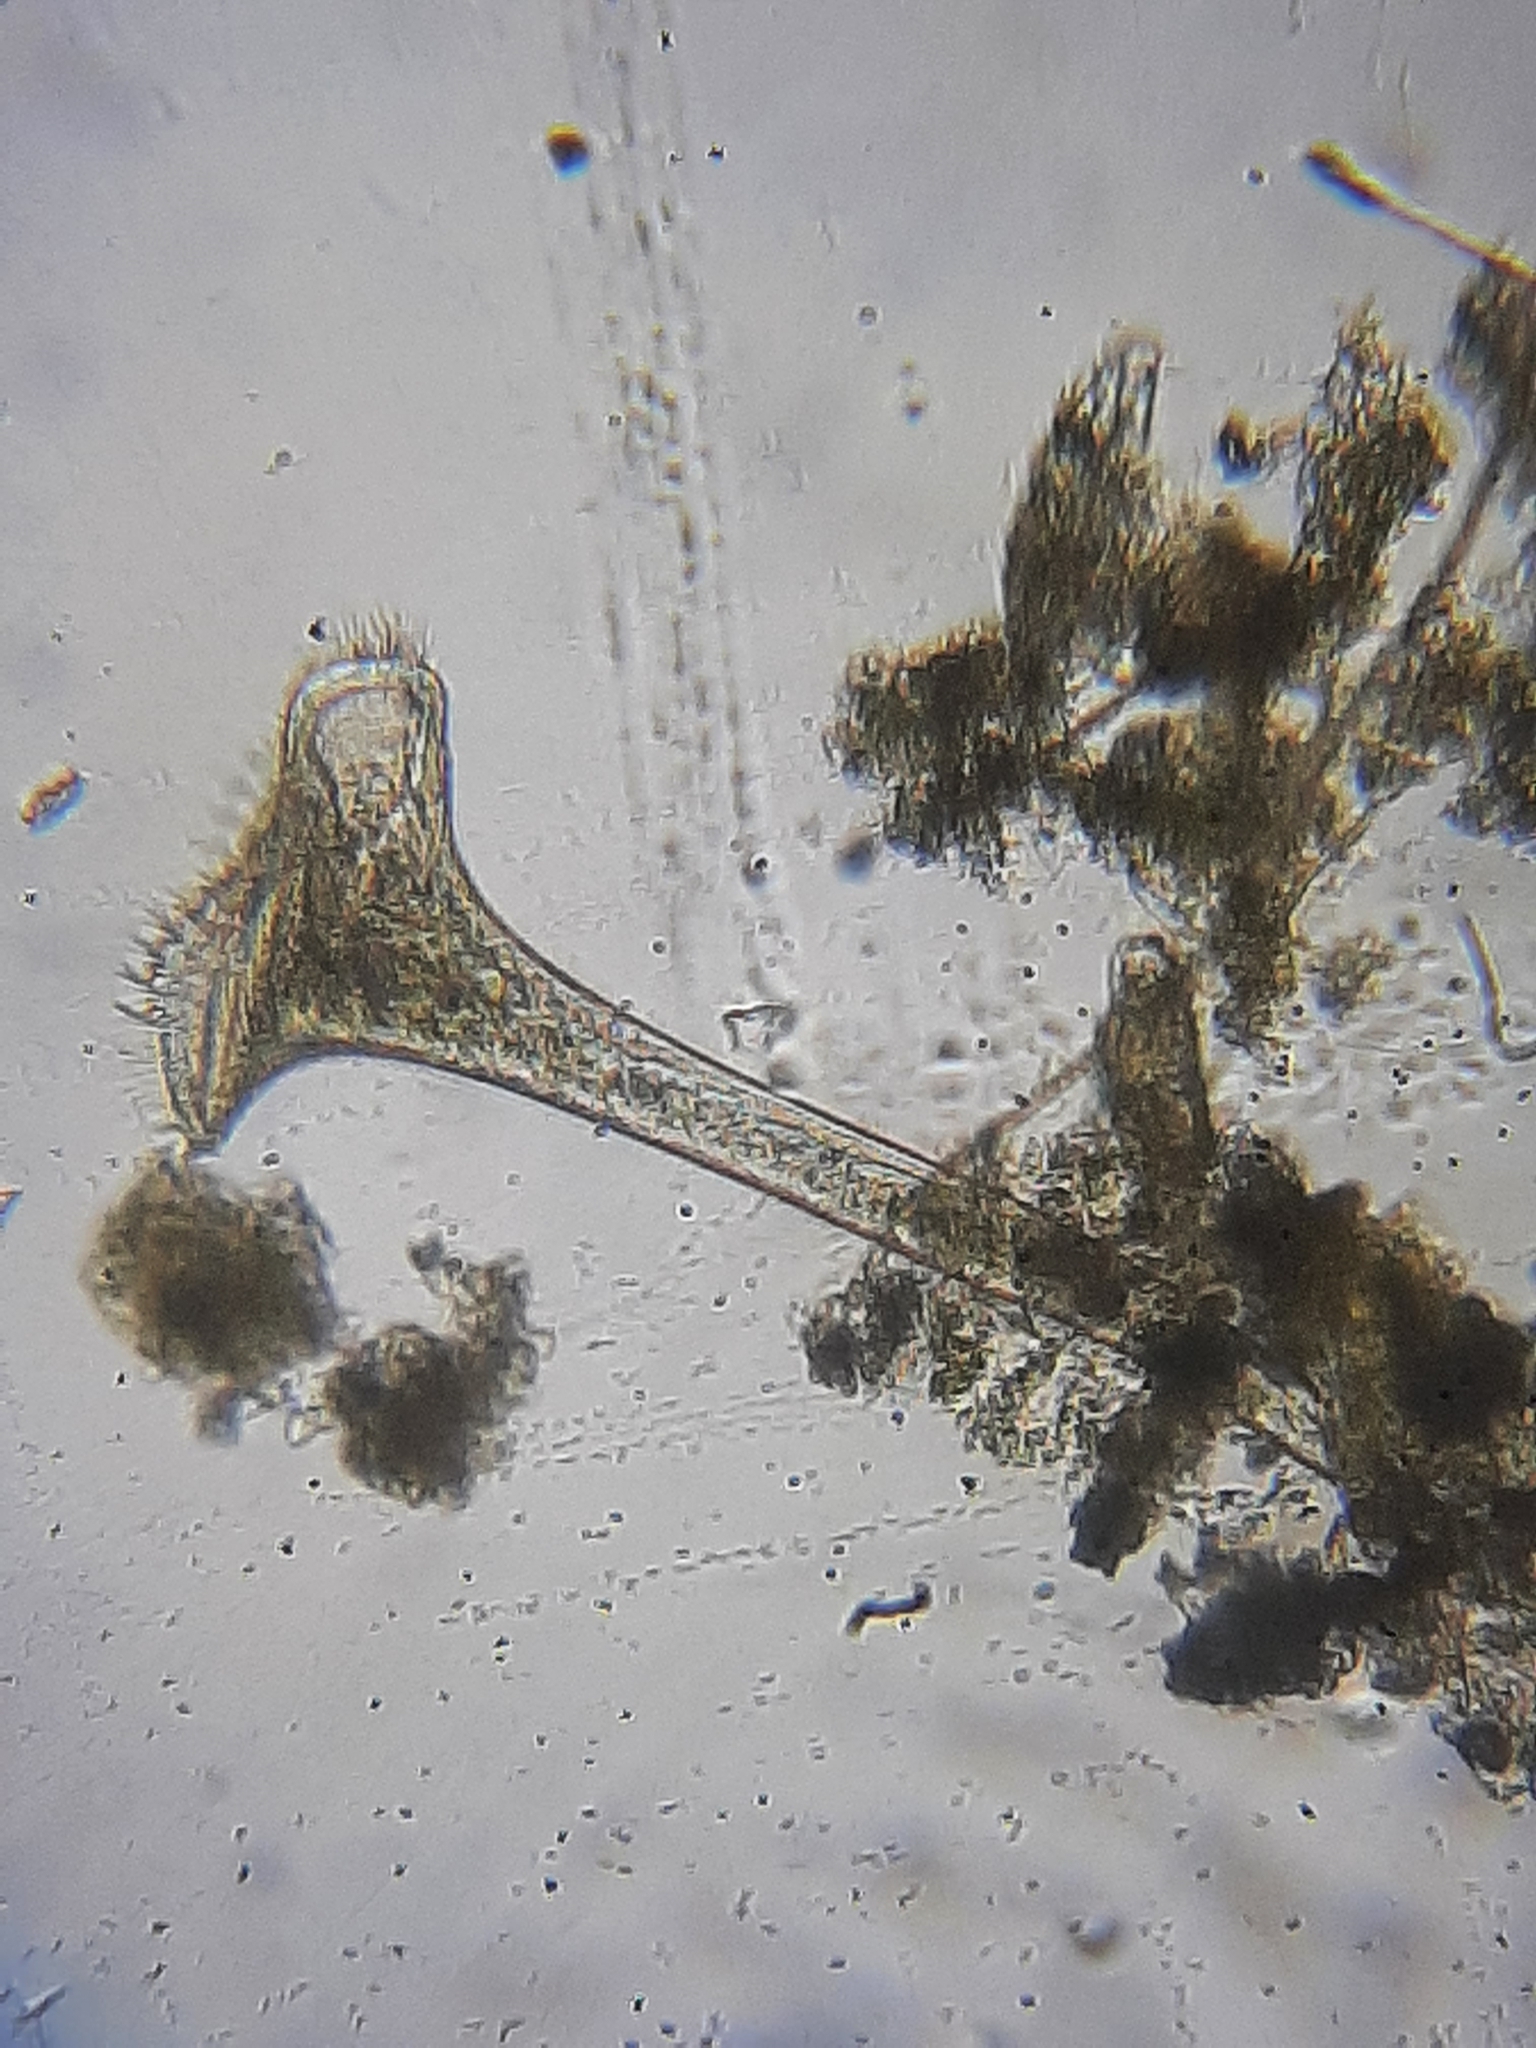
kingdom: Chromista
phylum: Ciliophora
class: Heterotrichea
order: Heterotrichida
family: Stentoridae
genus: Stentor
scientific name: Stentor roeselii
